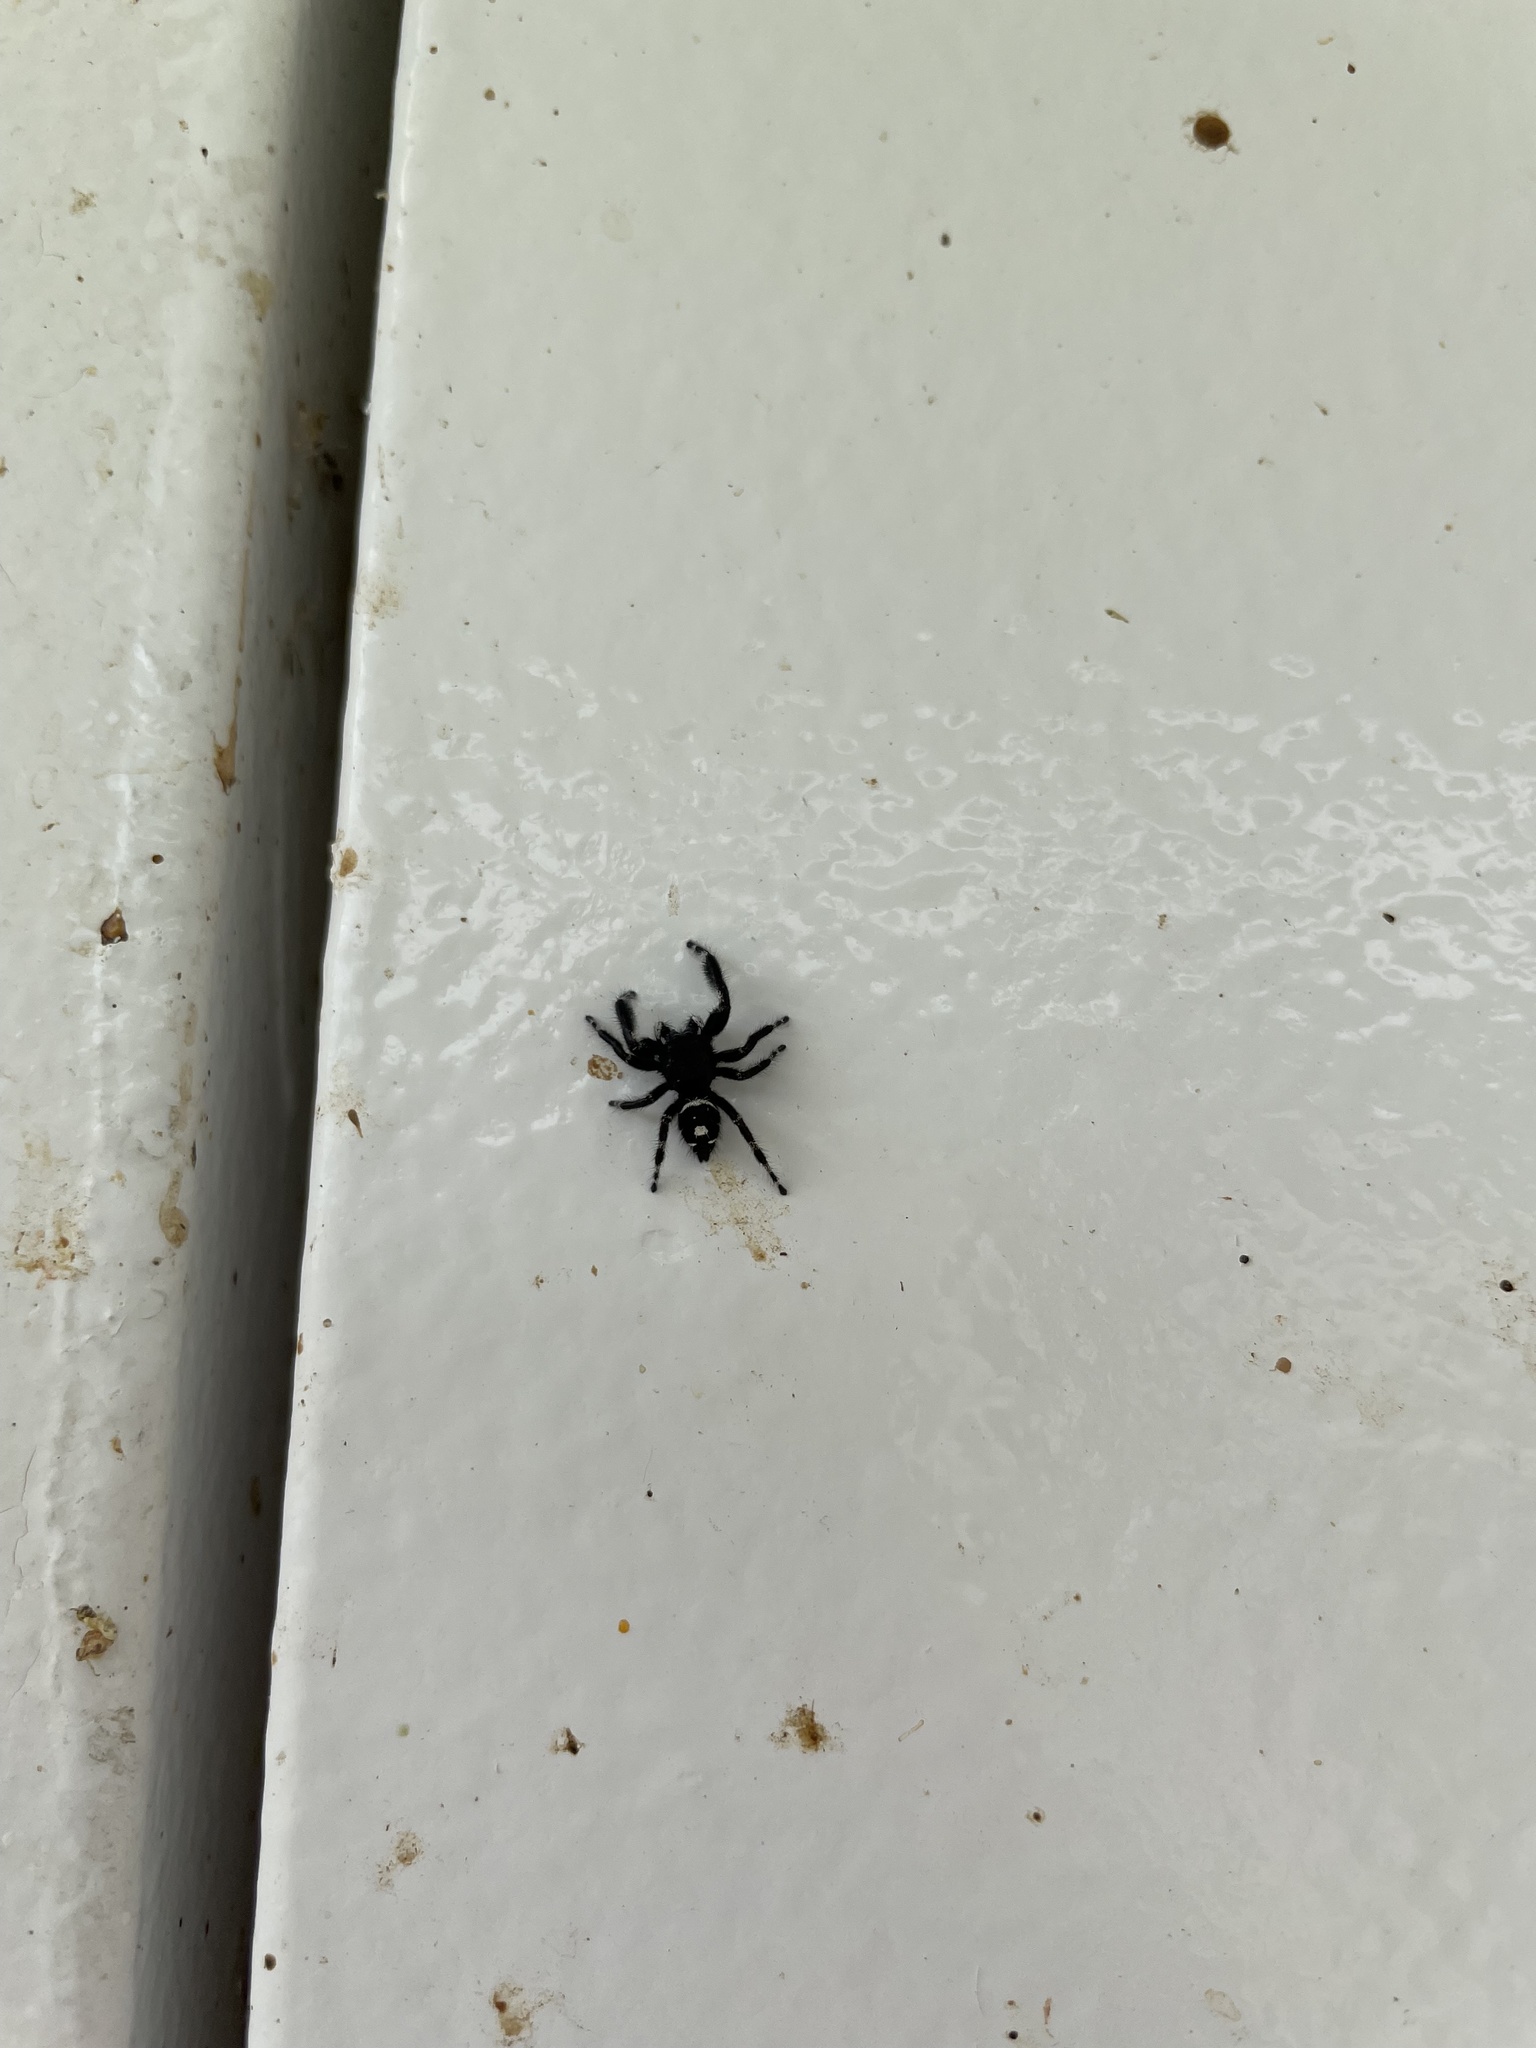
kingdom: Animalia
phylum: Arthropoda
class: Arachnida
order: Araneae
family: Salticidae
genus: Phidippus
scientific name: Phidippus audax
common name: Bold jumper
